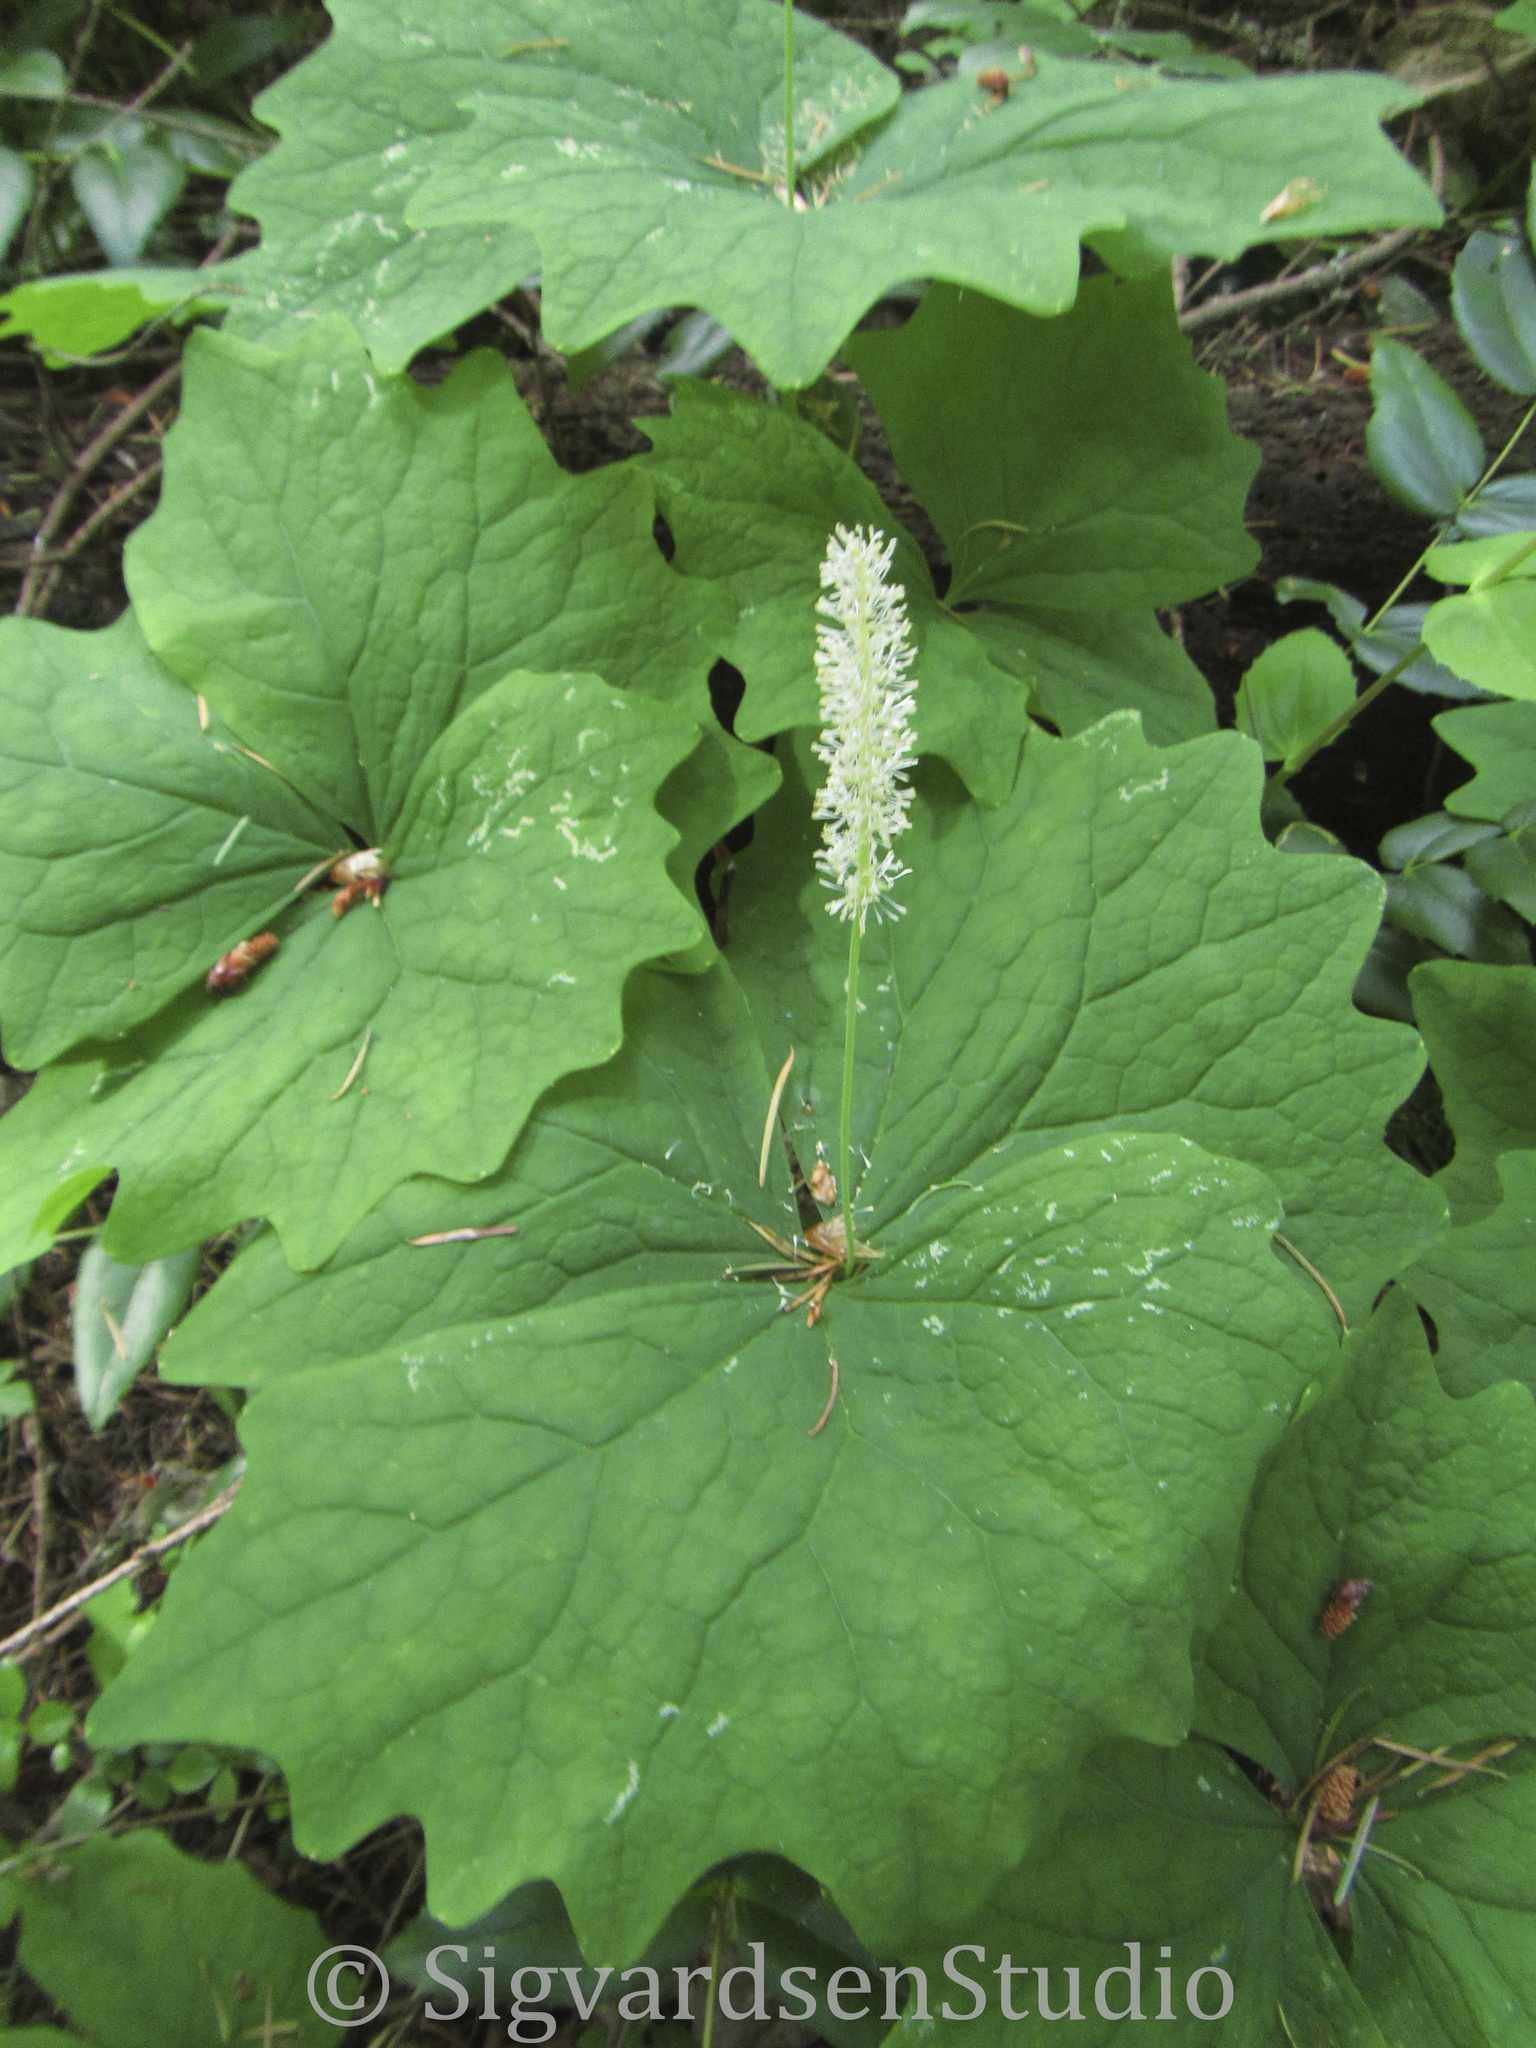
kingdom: Plantae
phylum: Tracheophyta
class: Magnoliopsida
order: Ranunculales
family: Berberidaceae
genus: Achlys
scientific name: Achlys triphylla
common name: Vanilla-leaf
